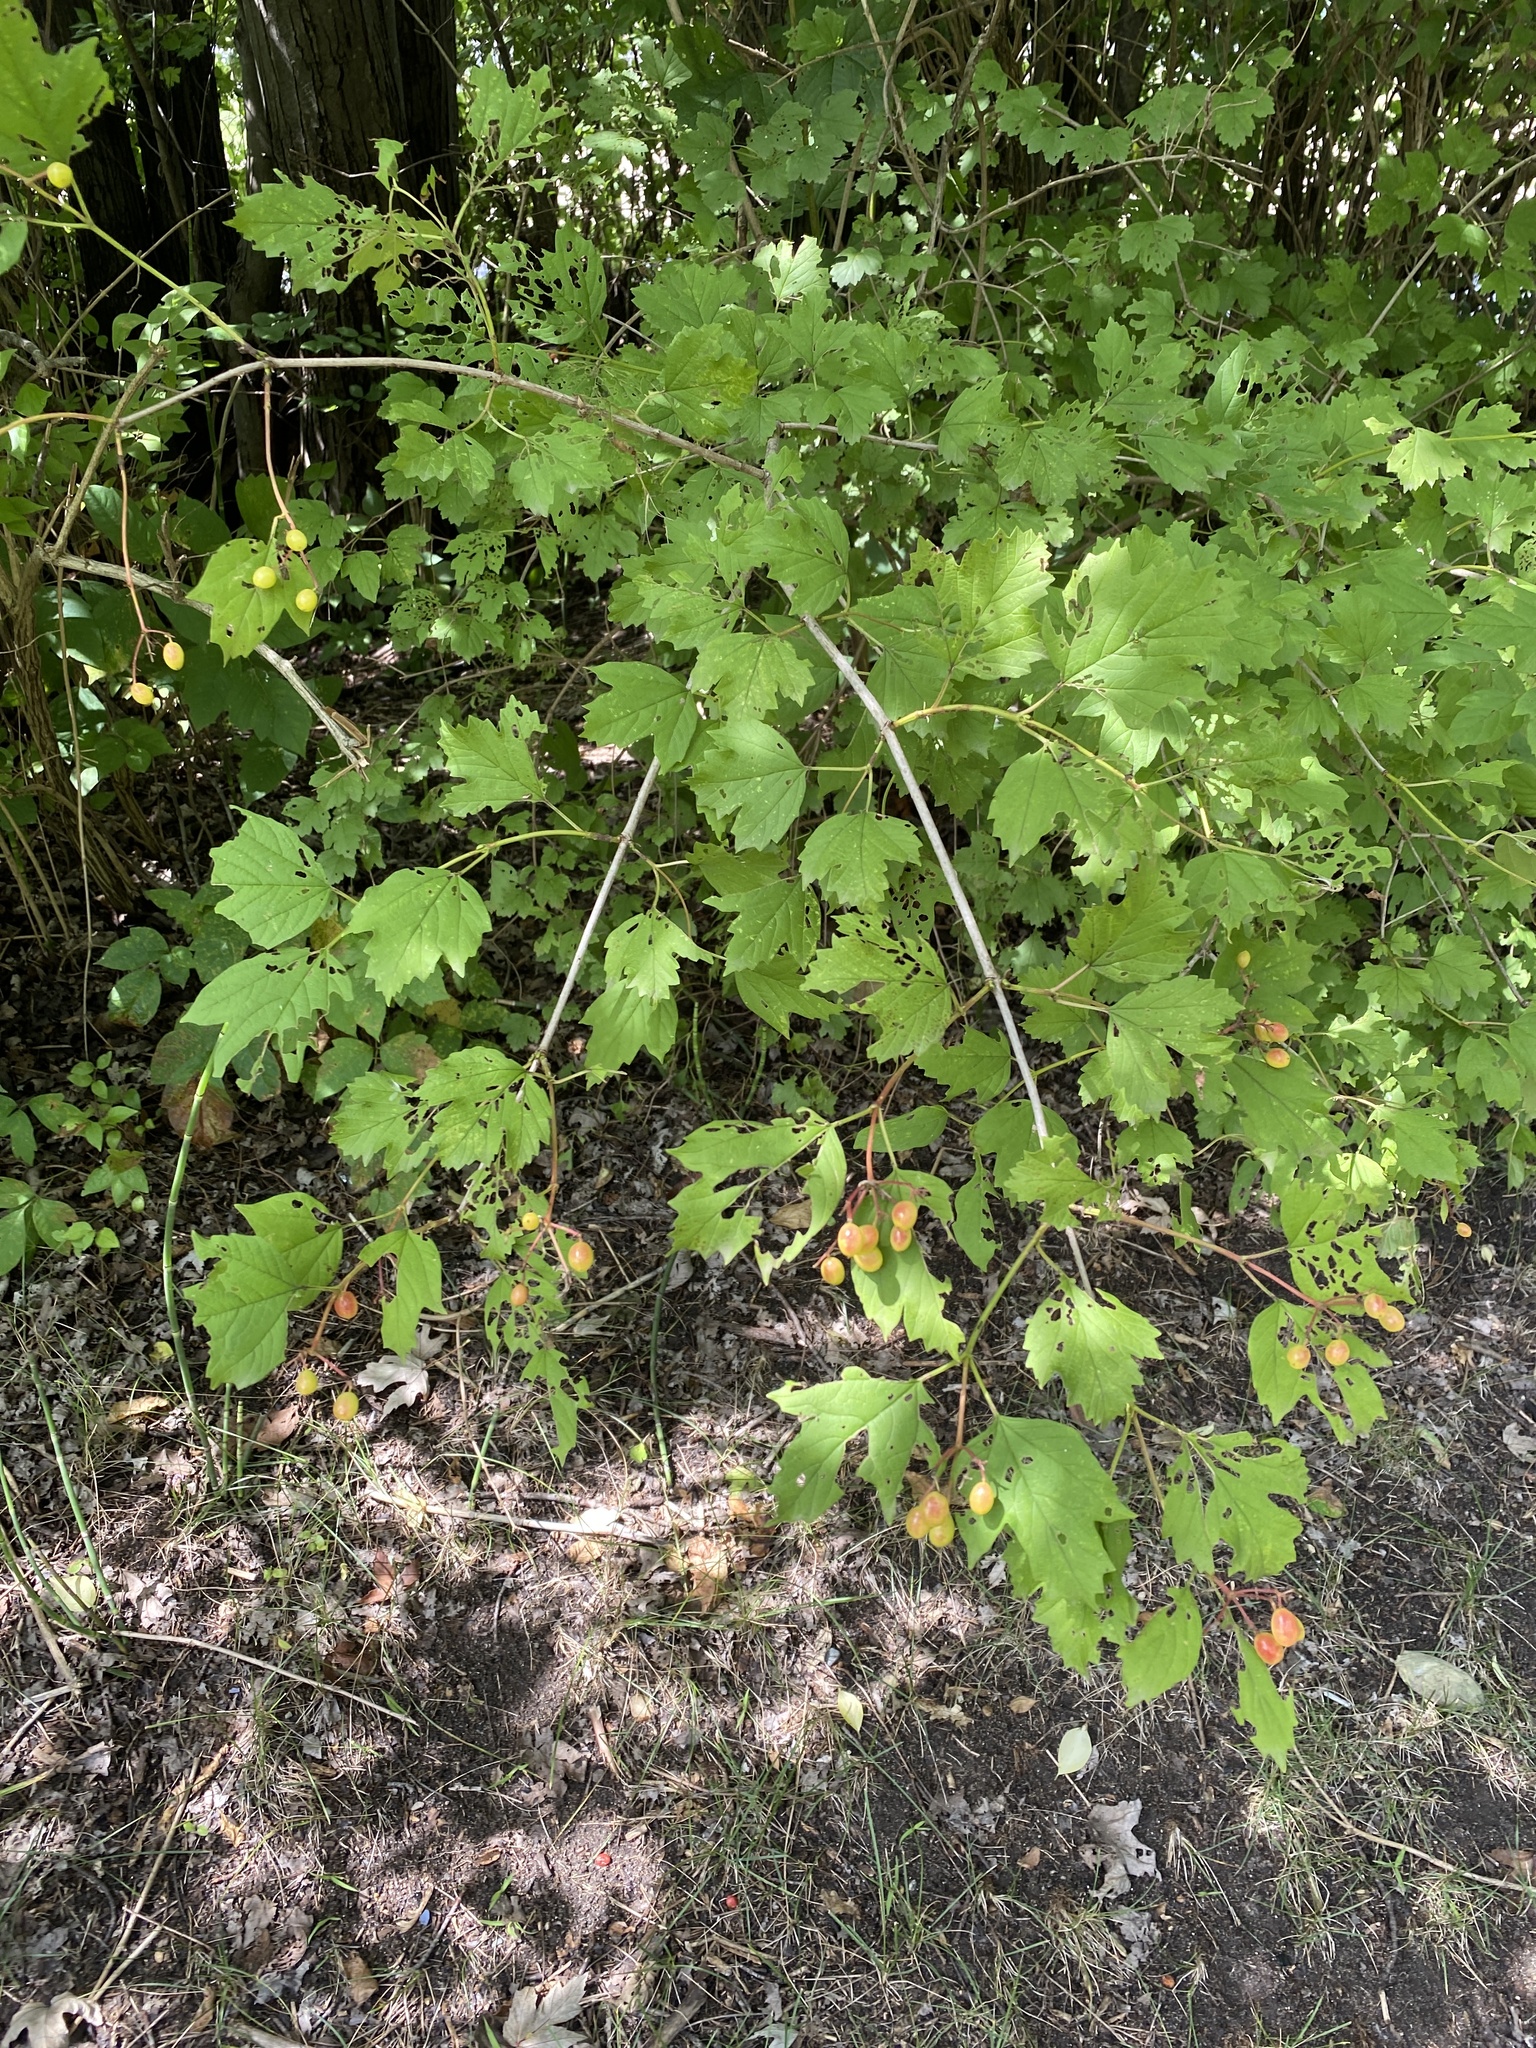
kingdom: Plantae
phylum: Tracheophyta
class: Magnoliopsida
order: Dipsacales
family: Viburnaceae
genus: Viburnum
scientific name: Viburnum opulus
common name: Guelder-rose
